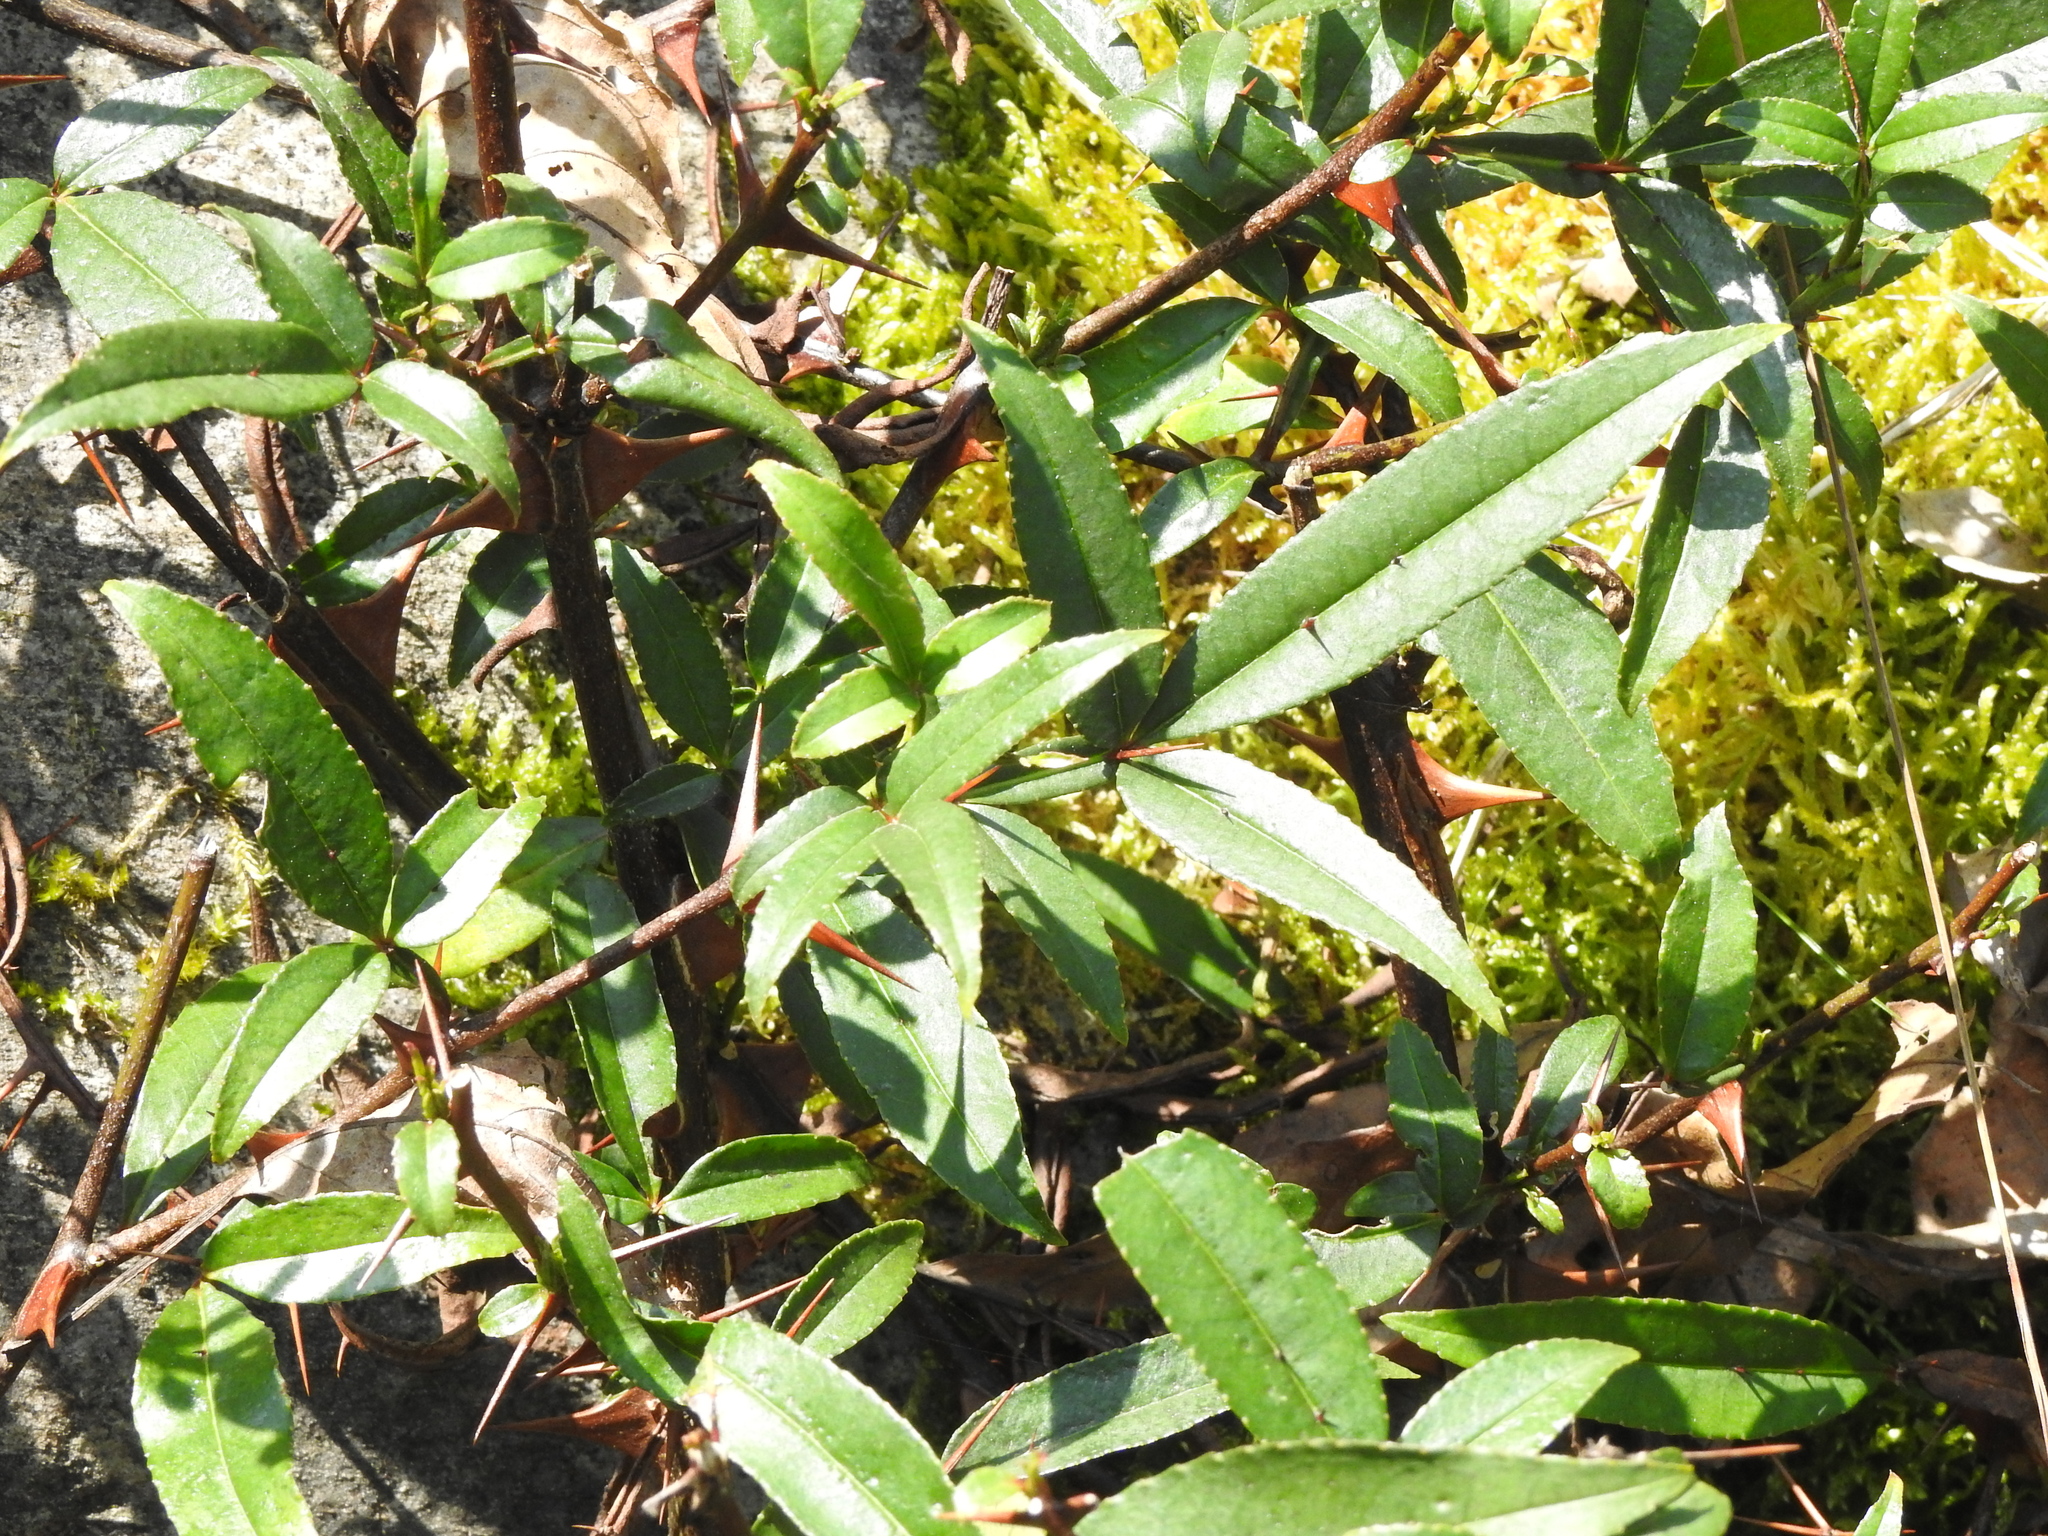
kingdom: Plantae
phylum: Tracheophyta
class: Magnoliopsida
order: Sapindales
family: Rutaceae
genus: Zanthoxylum
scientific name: Zanthoxylum acanthopodium
